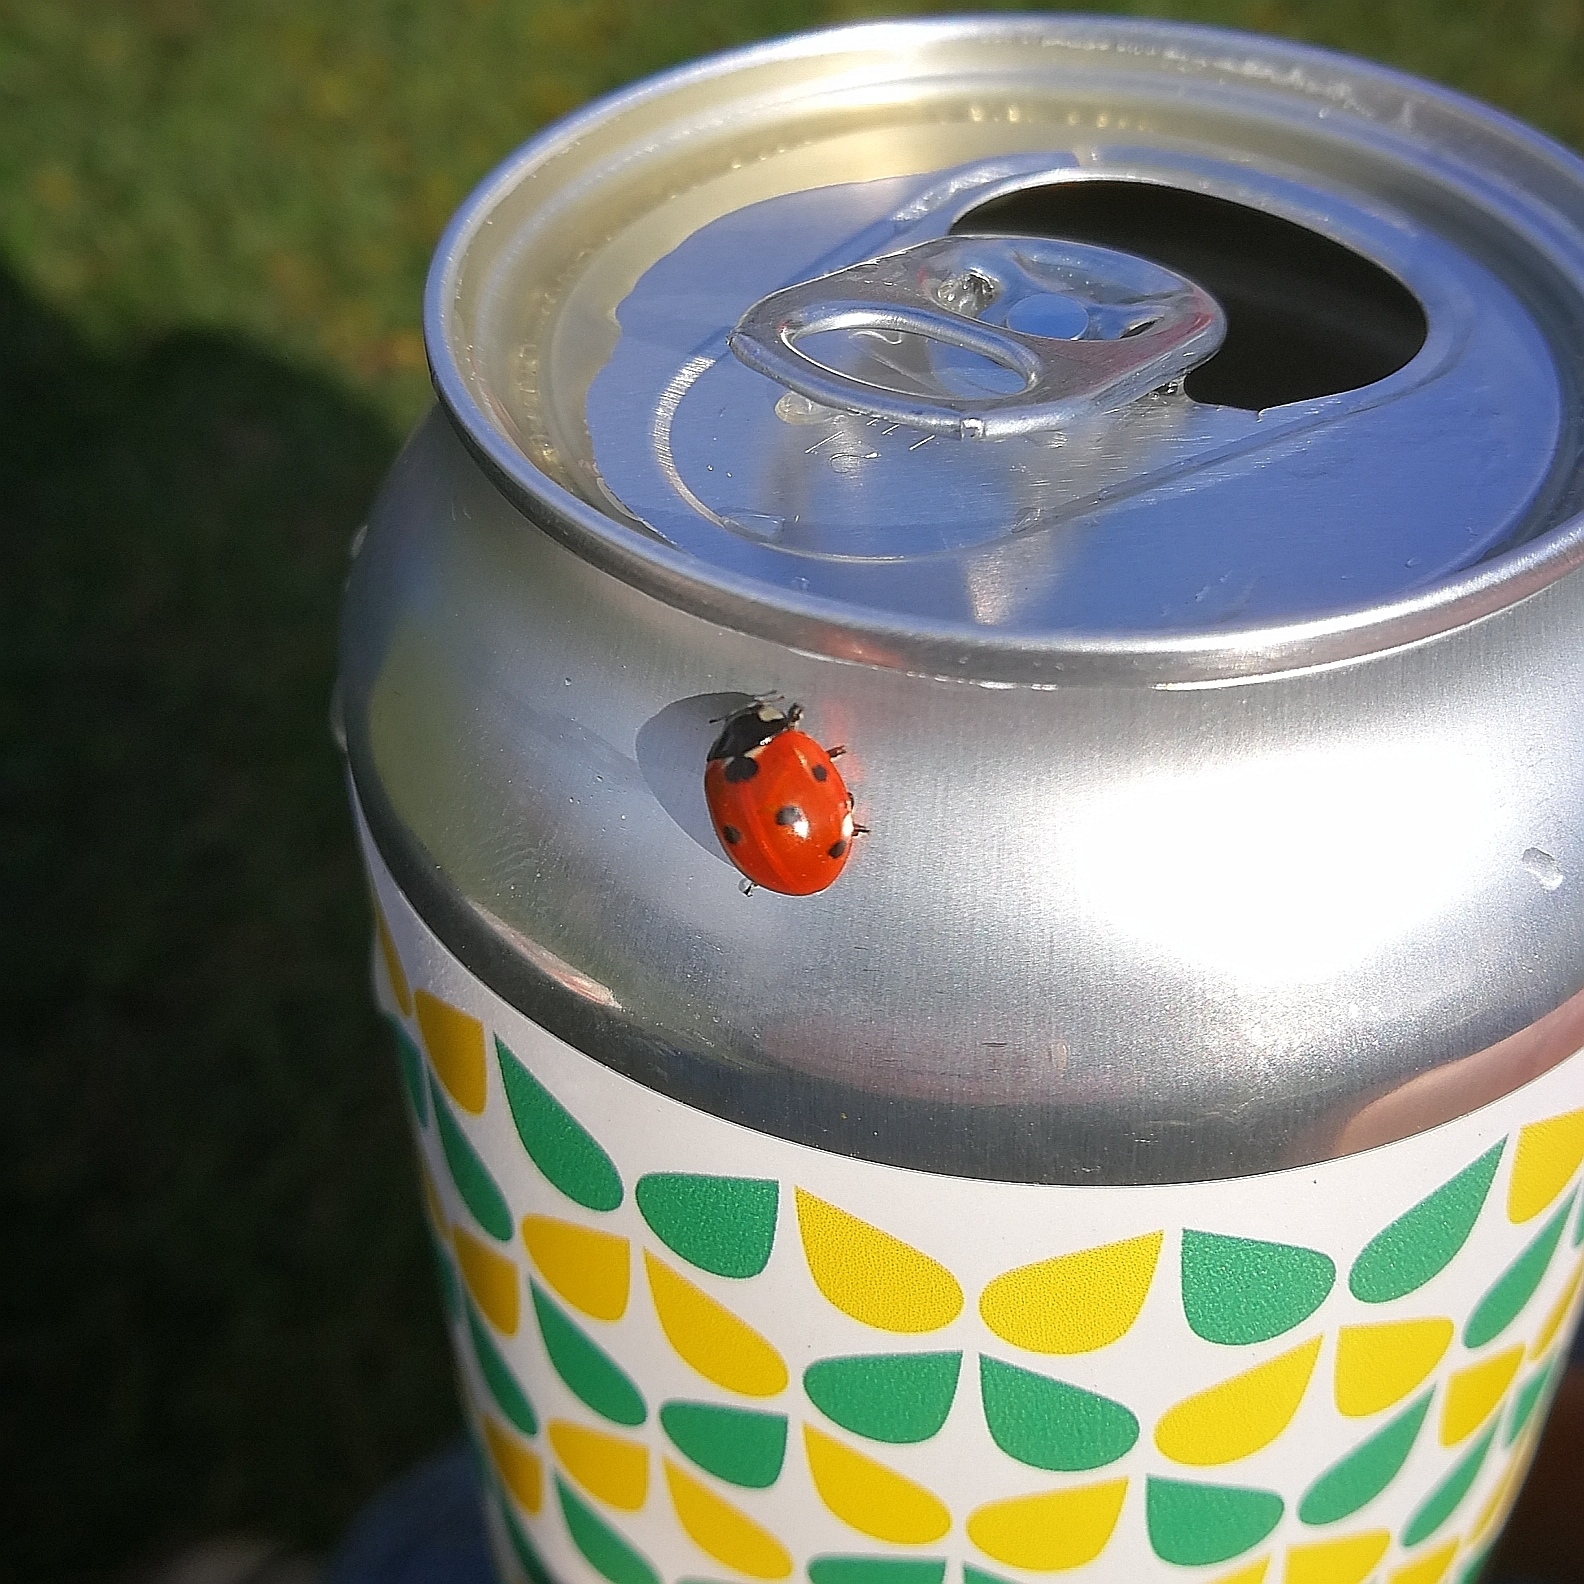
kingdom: Animalia
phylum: Arthropoda
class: Insecta
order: Coleoptera
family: Coccinellidae
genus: Coccinella
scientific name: Coccinella septempunctata
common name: Sevenspotted lady beetle
